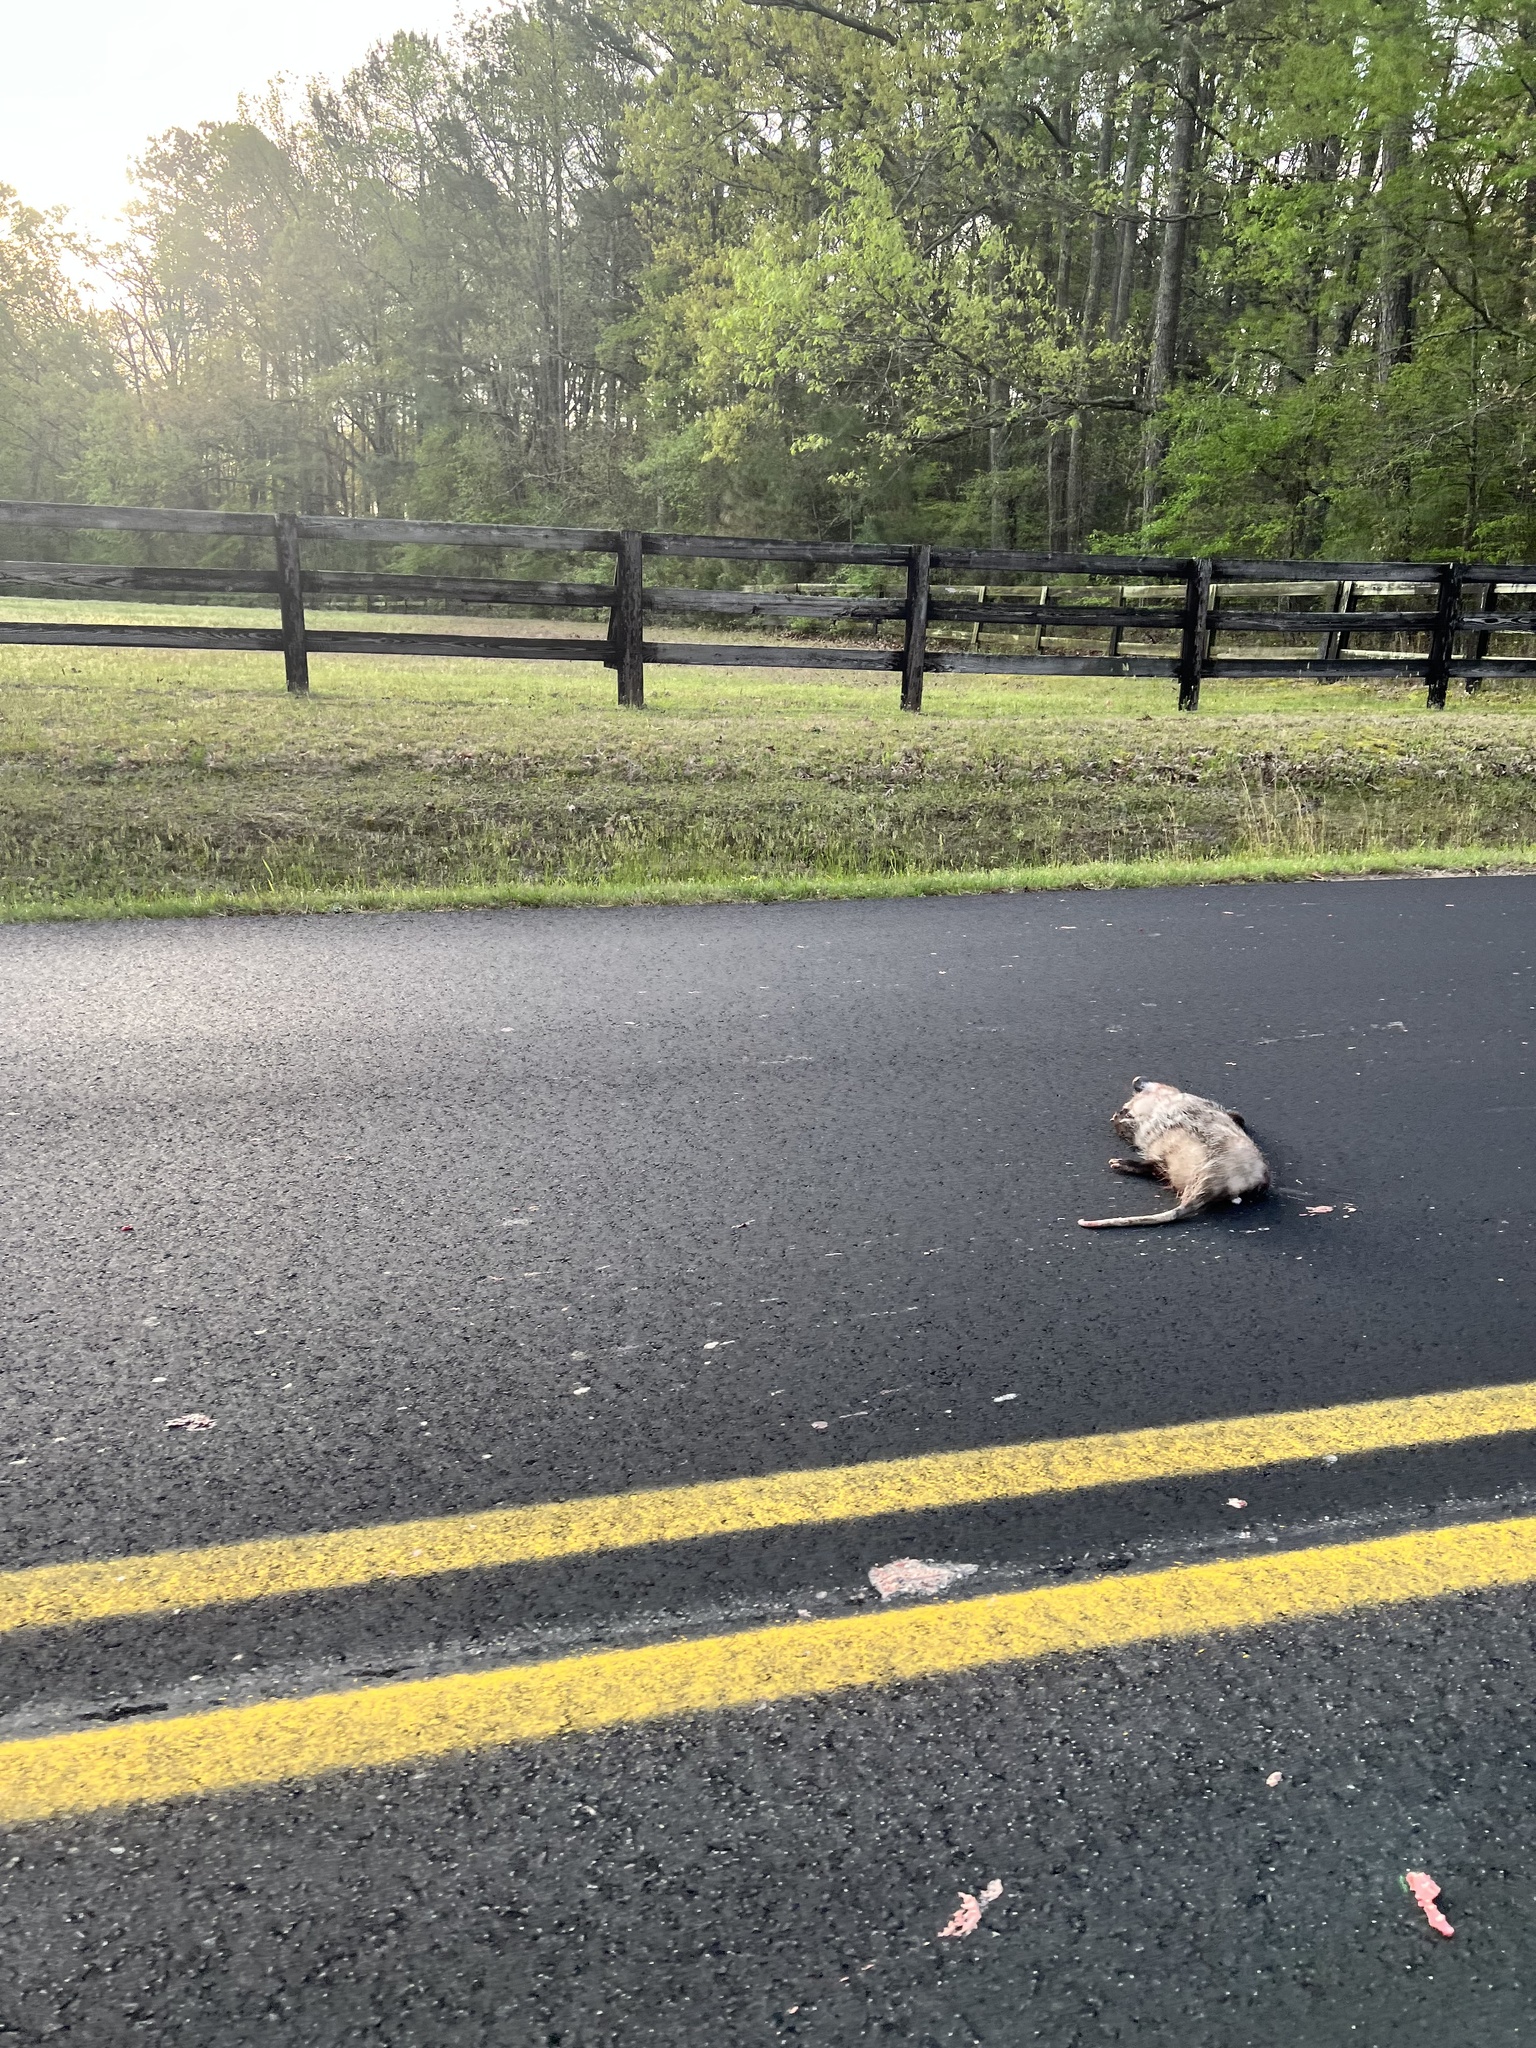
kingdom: Animalia
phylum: Chordata
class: Mammalia
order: Didelphimorphia
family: Didelphidae
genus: Didelphis
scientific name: Didelphis virginiana
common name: Virginia opossum
